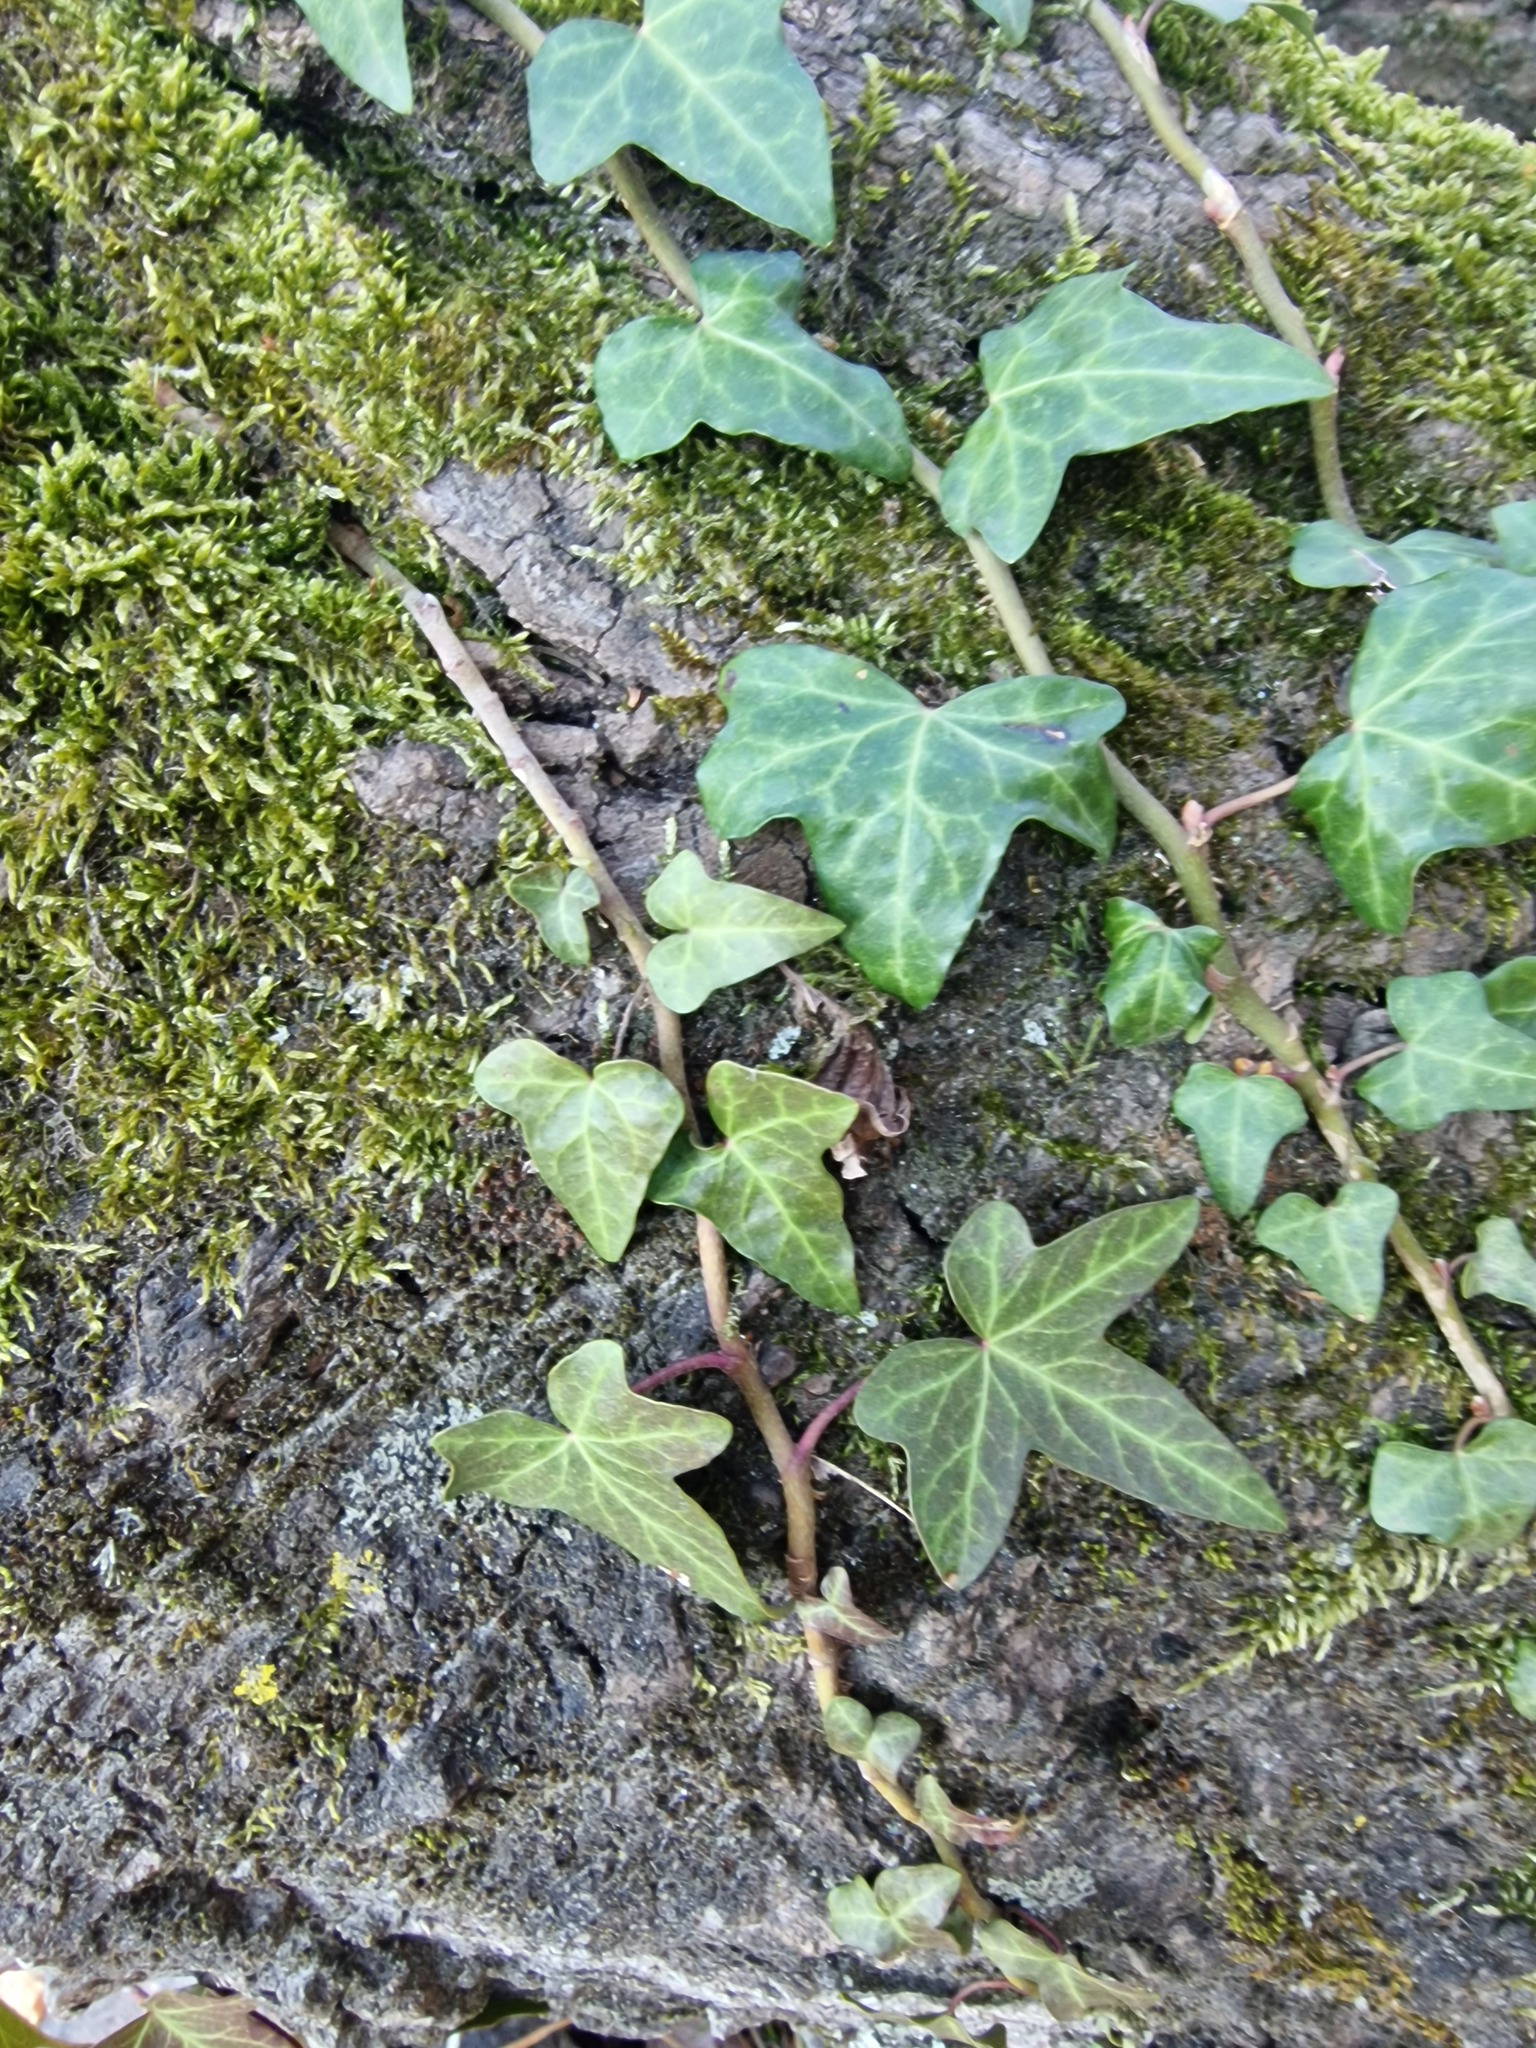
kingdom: Plantae
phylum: Tracheophyta
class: Magnoliopsida
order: Apiales
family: Araliaceae
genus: Hedera
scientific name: Hedera helix
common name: Ivy
